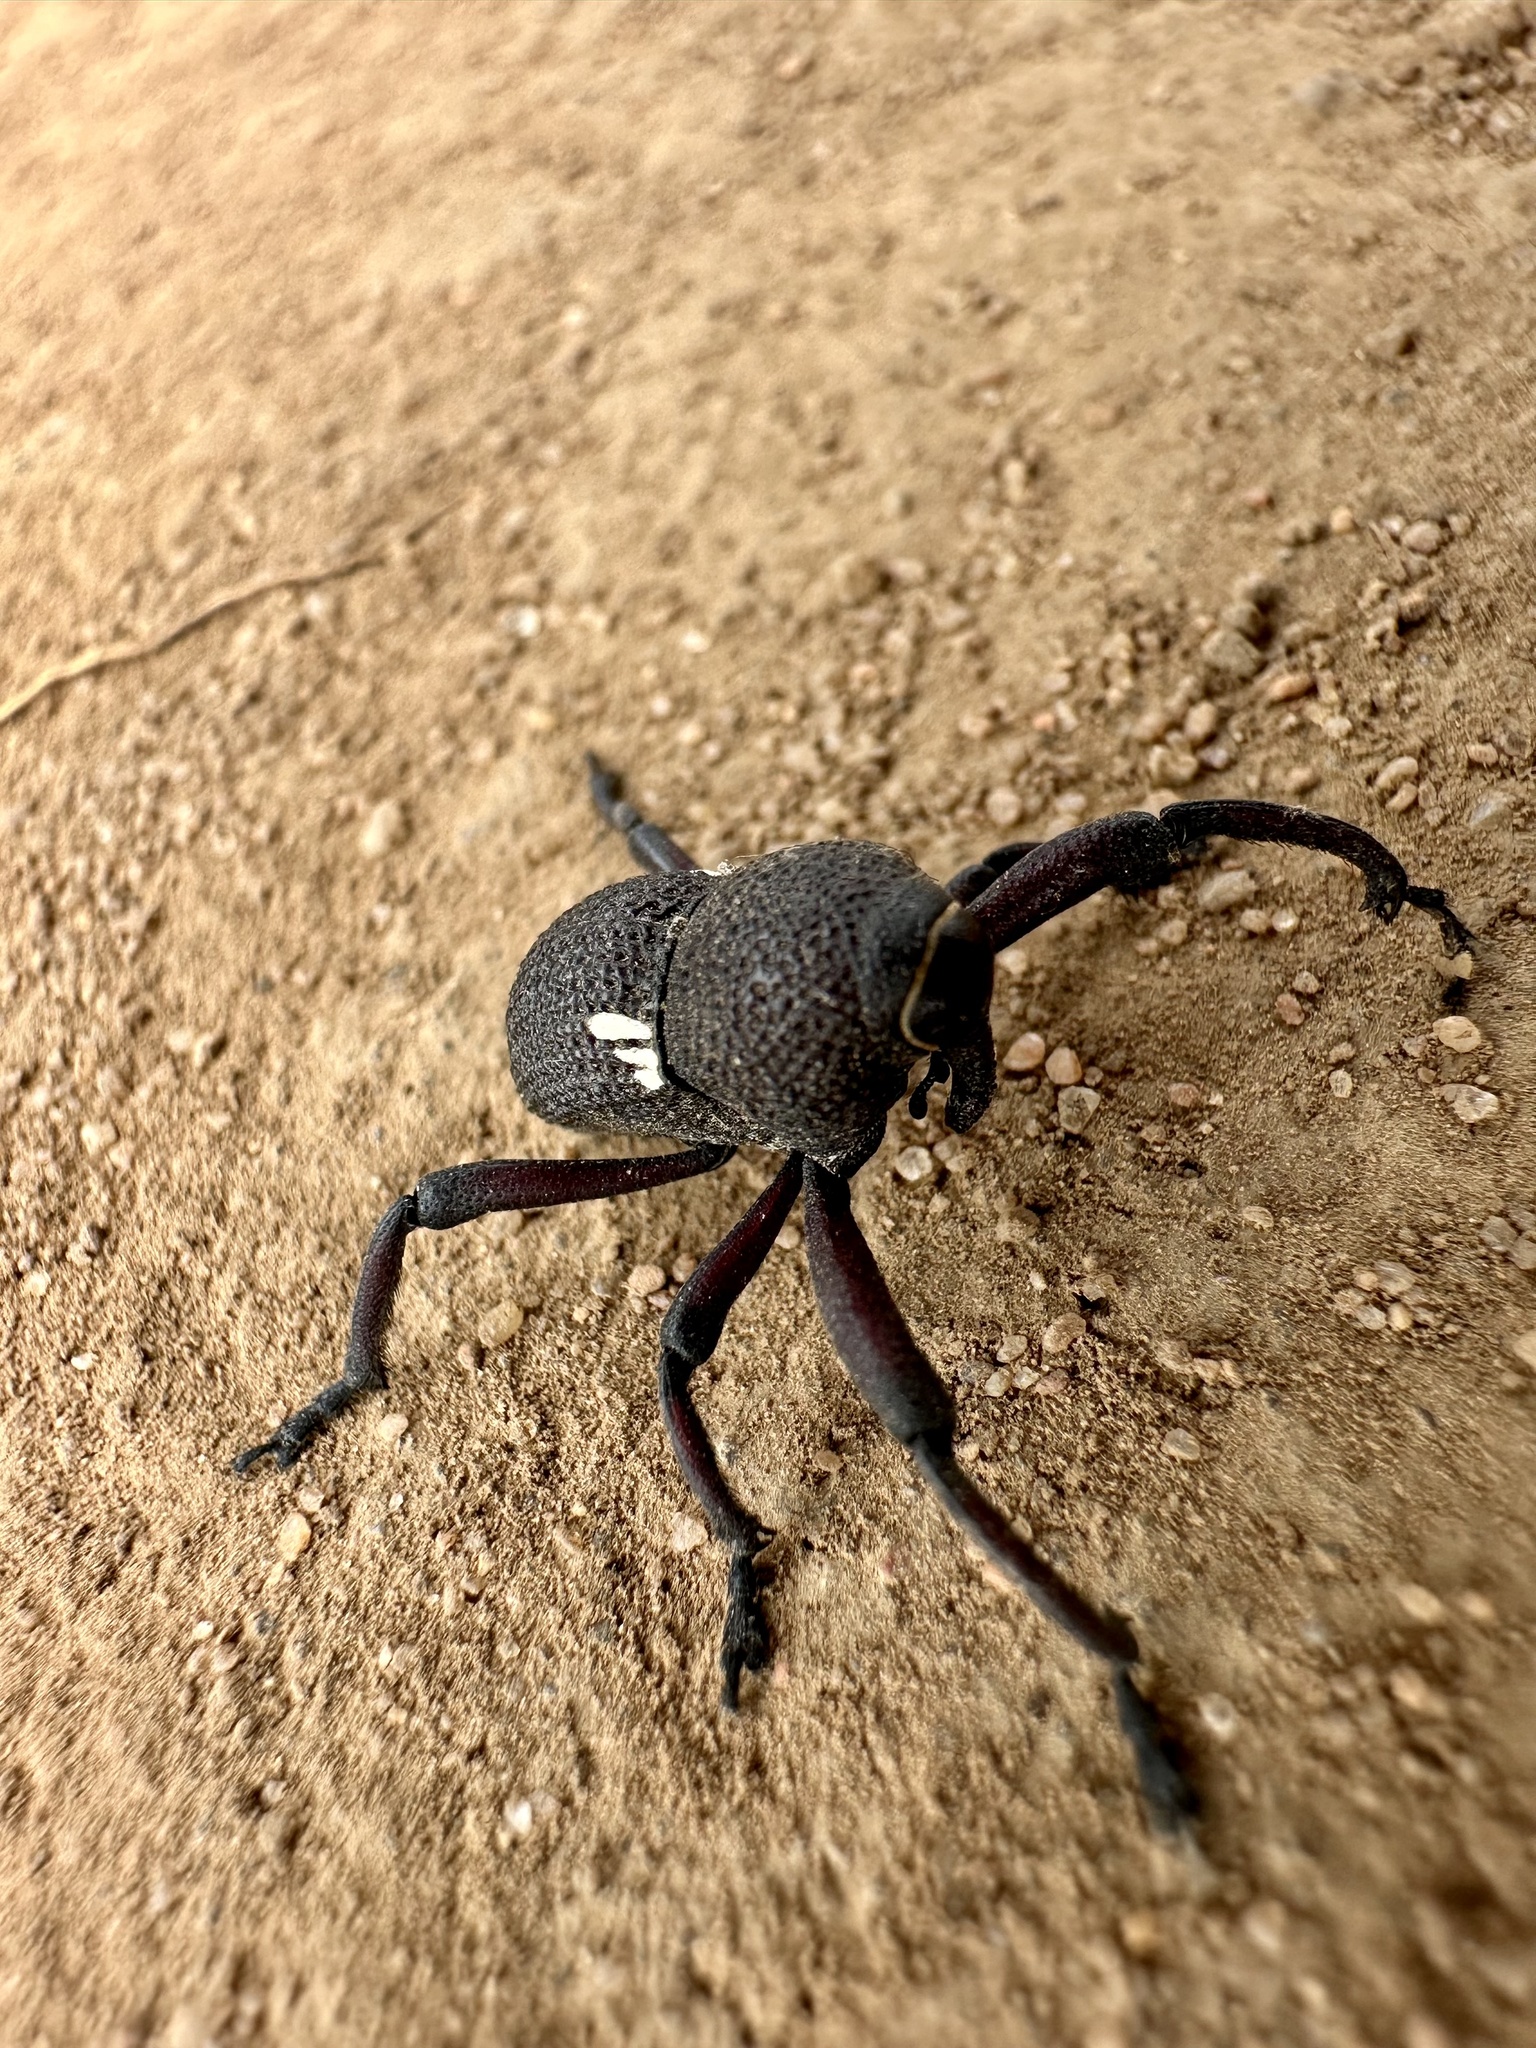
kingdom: Animalia
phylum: Arthropoda
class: Insecta
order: Coleoptera
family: Curculionidae
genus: Rhyephenes
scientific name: Rhyephenes gayi
